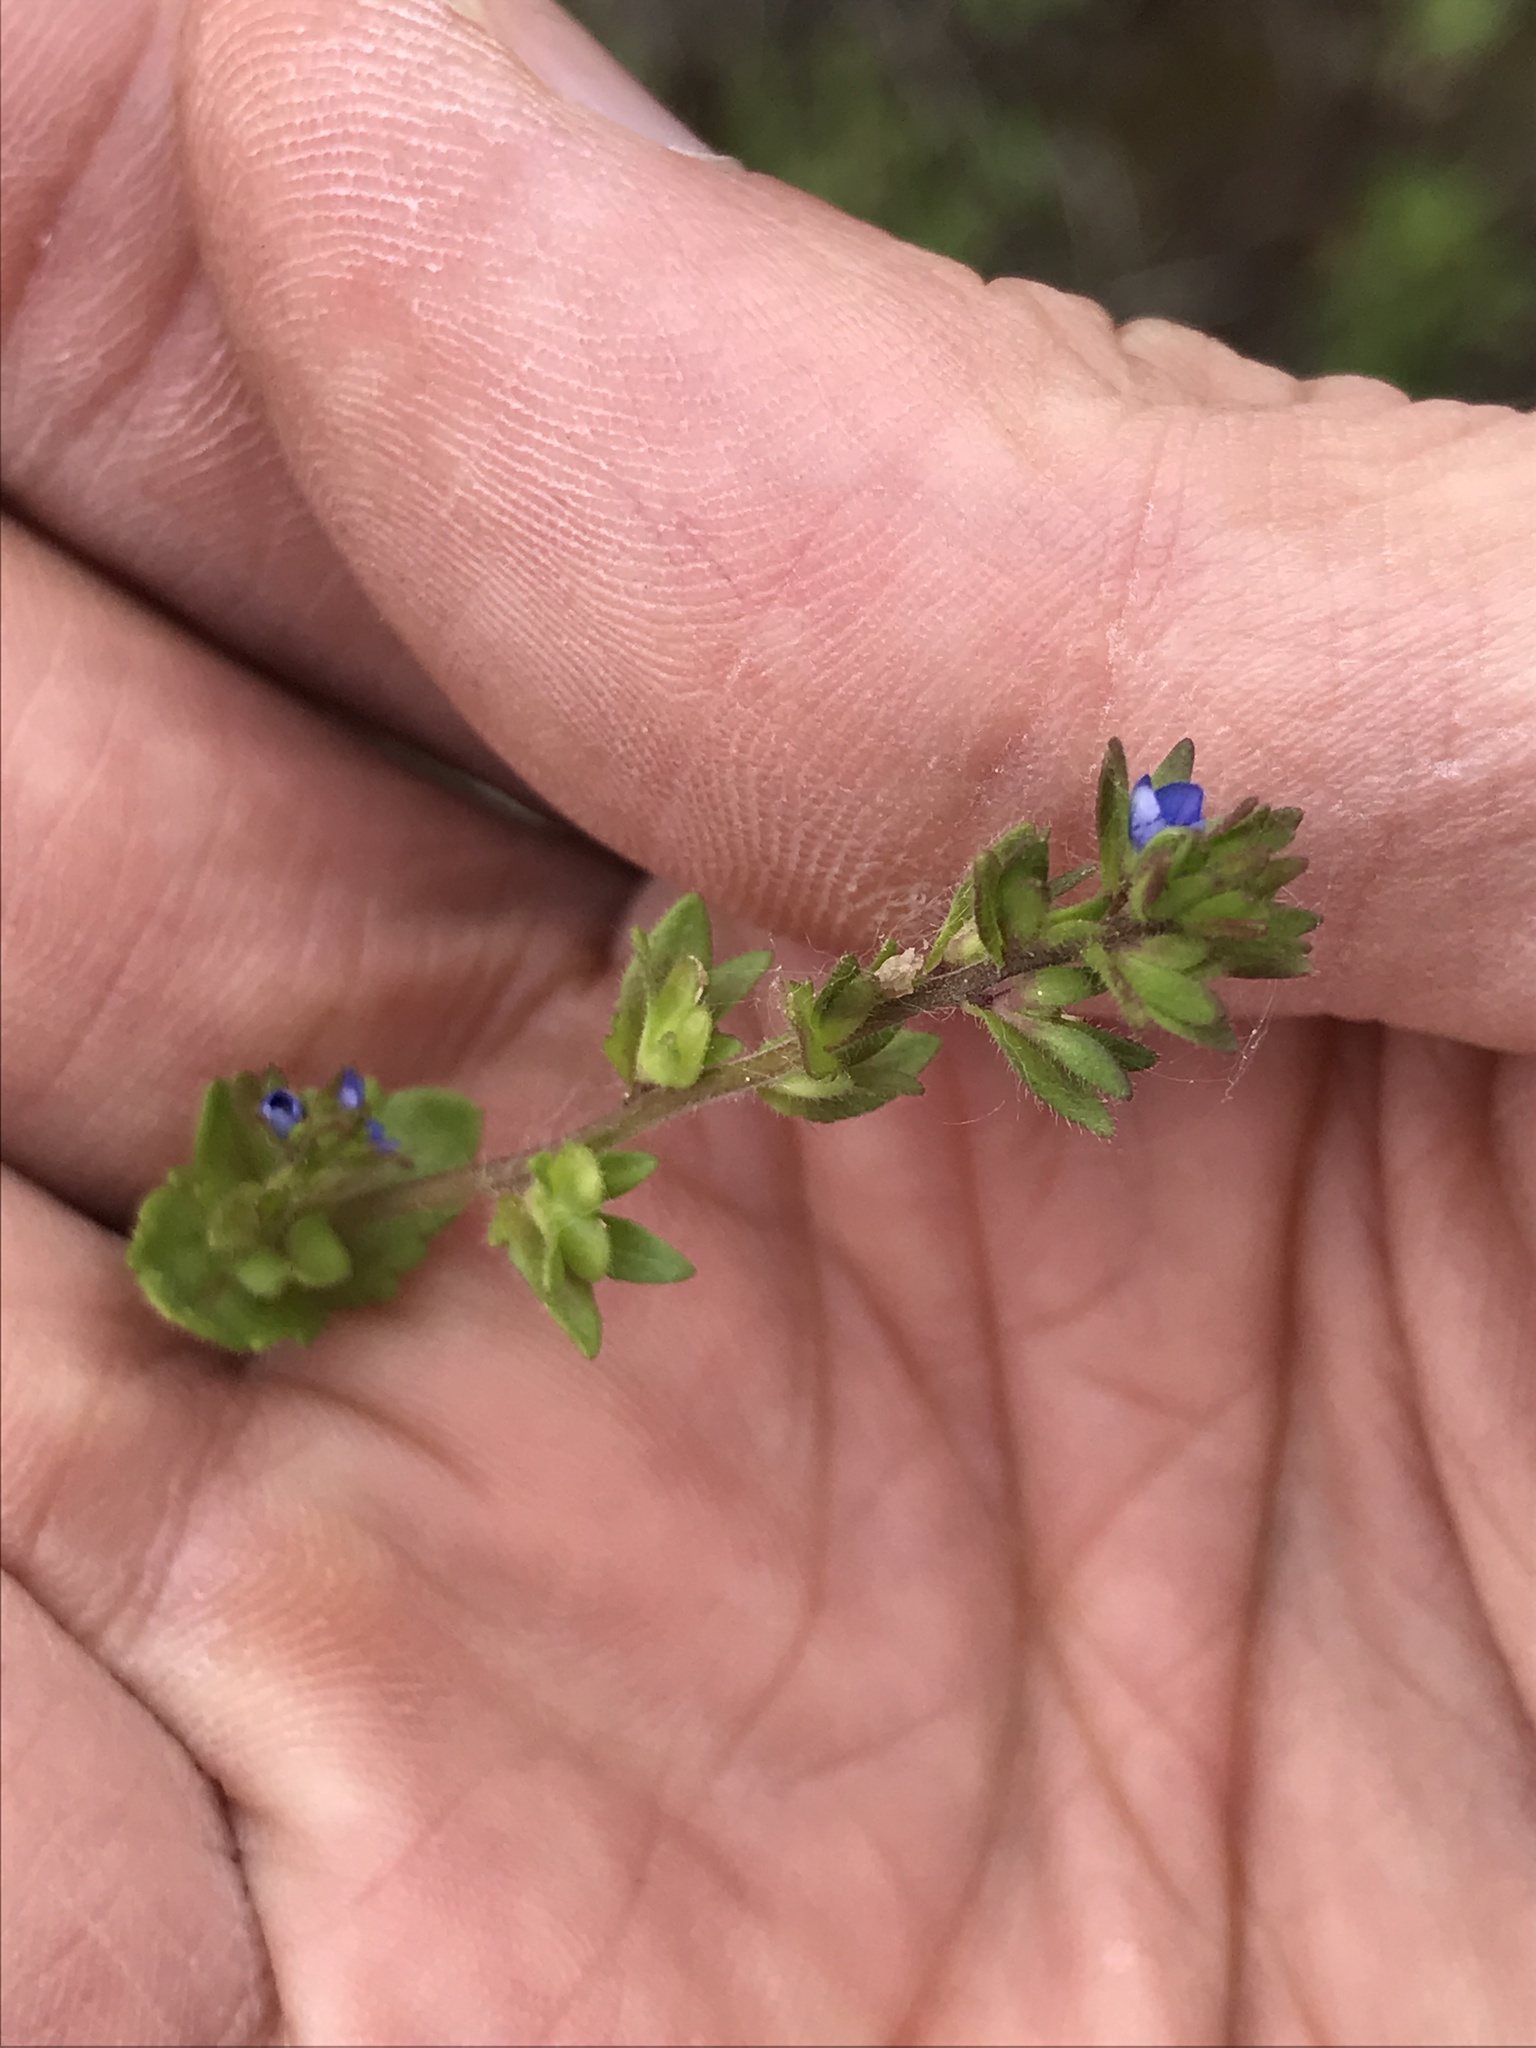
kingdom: Plantae
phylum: Tracheophyta
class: Magnoliopsida
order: Lamiales
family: Plantaginaceae
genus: Veronica
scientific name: Veronica arvensis
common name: Corn speedwell
